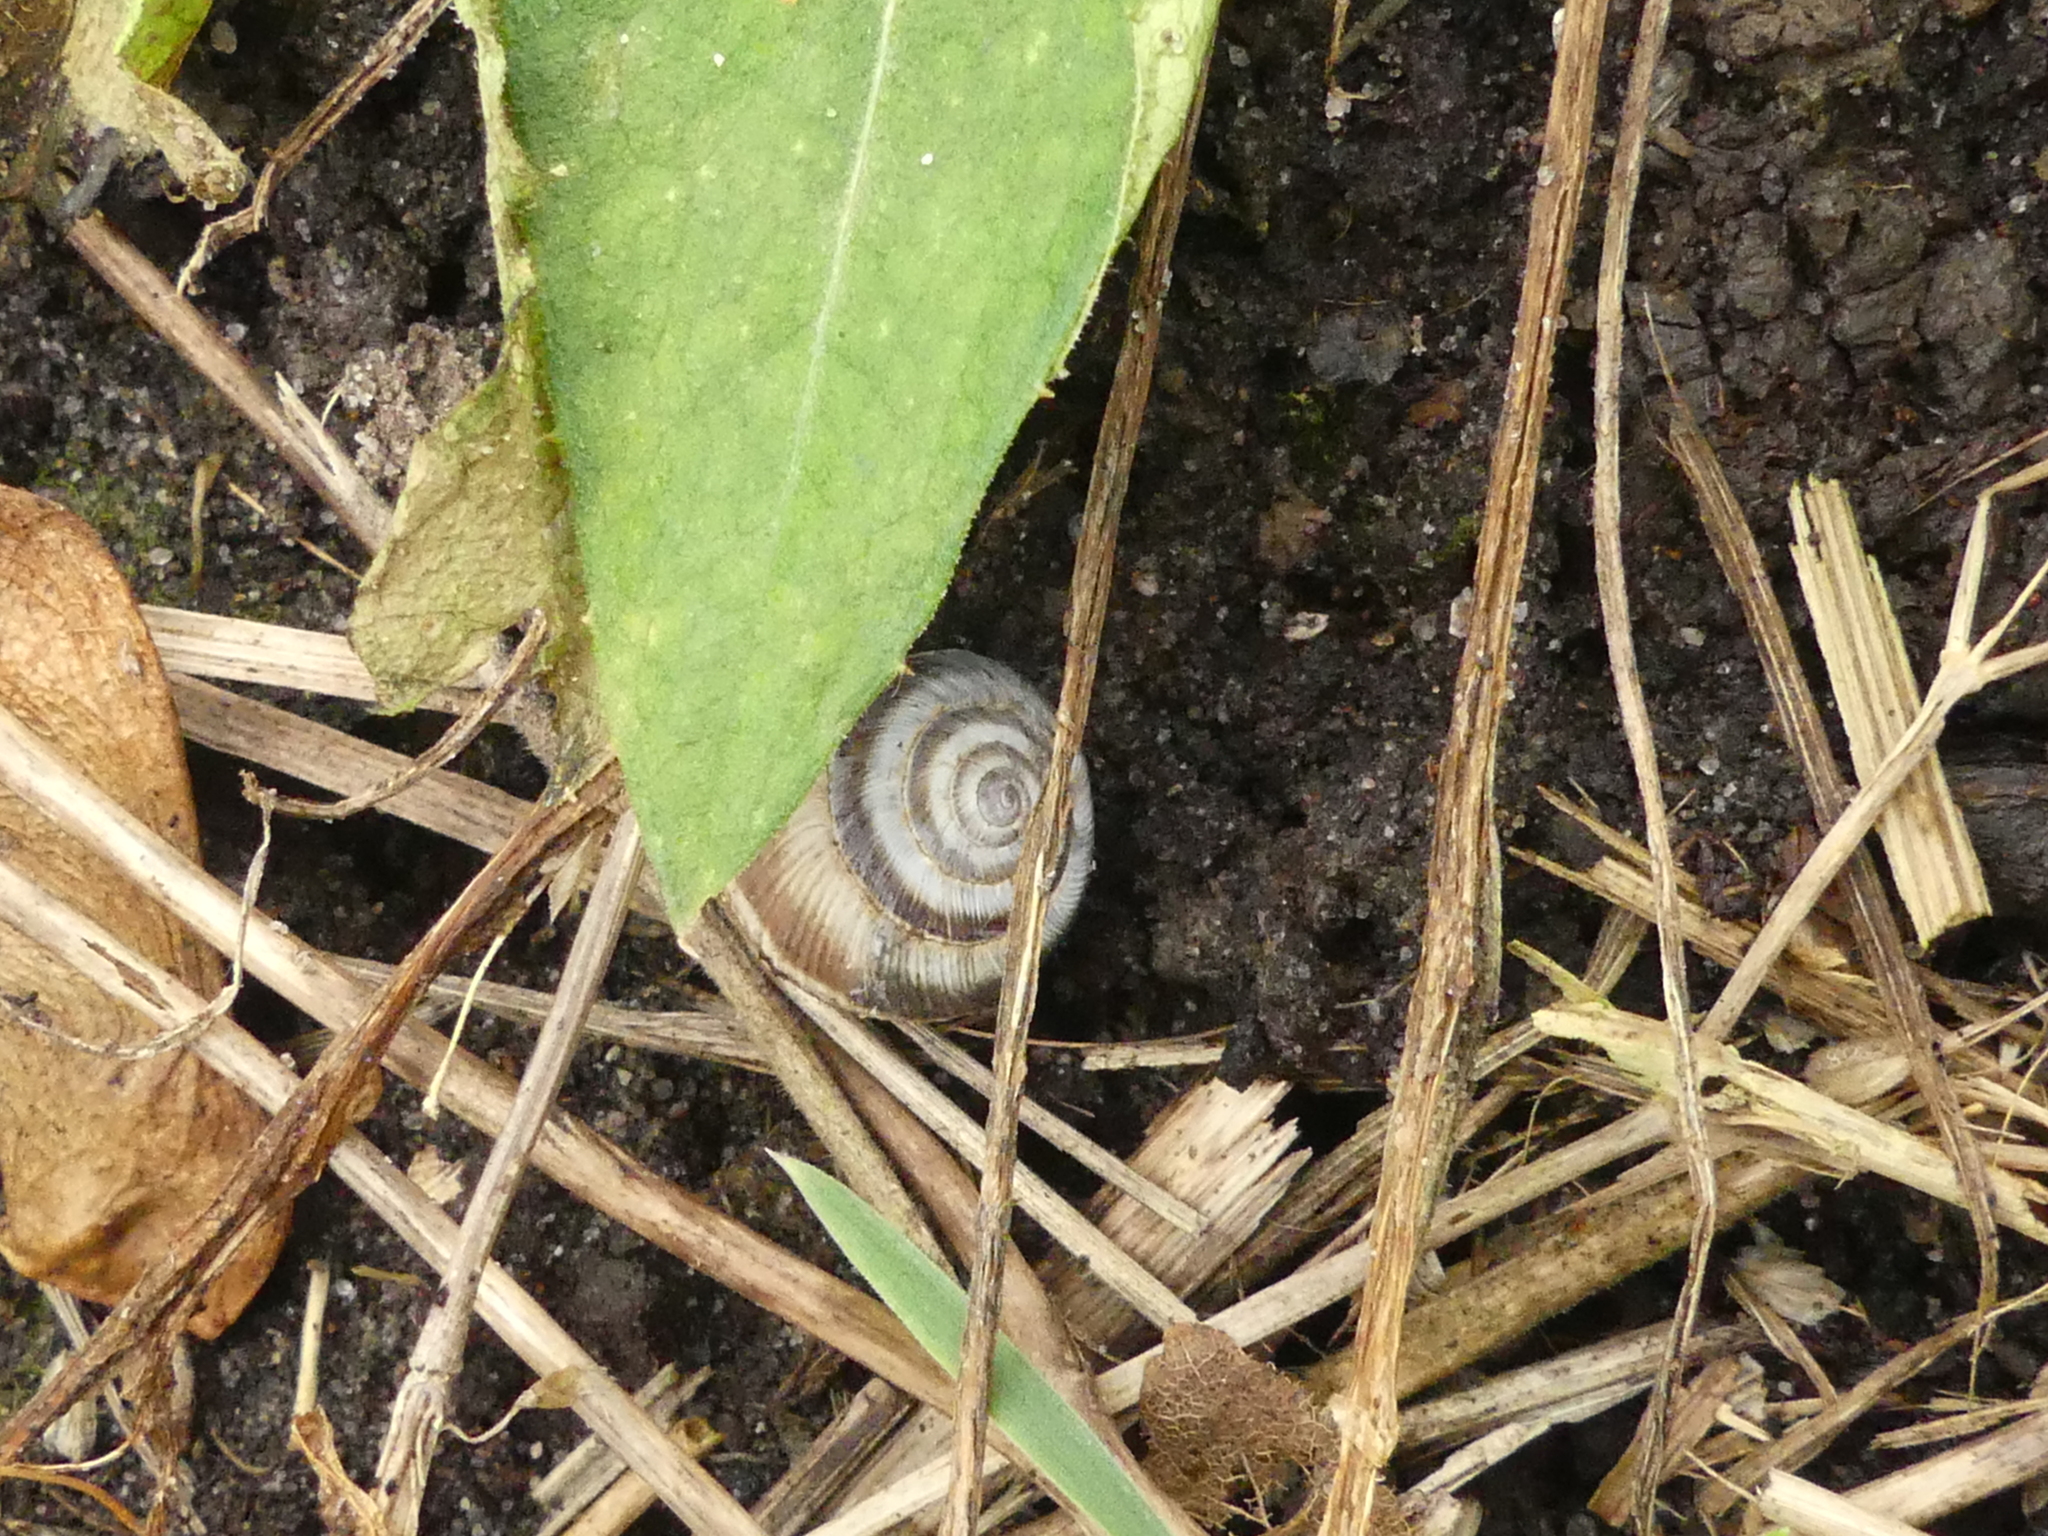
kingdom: Animalia
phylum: Mollusca
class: Gastropoda
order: Stylommatophora
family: Geomitridae
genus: Cernuella
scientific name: Cernuella cisalpina
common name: Maritime gardensnail
